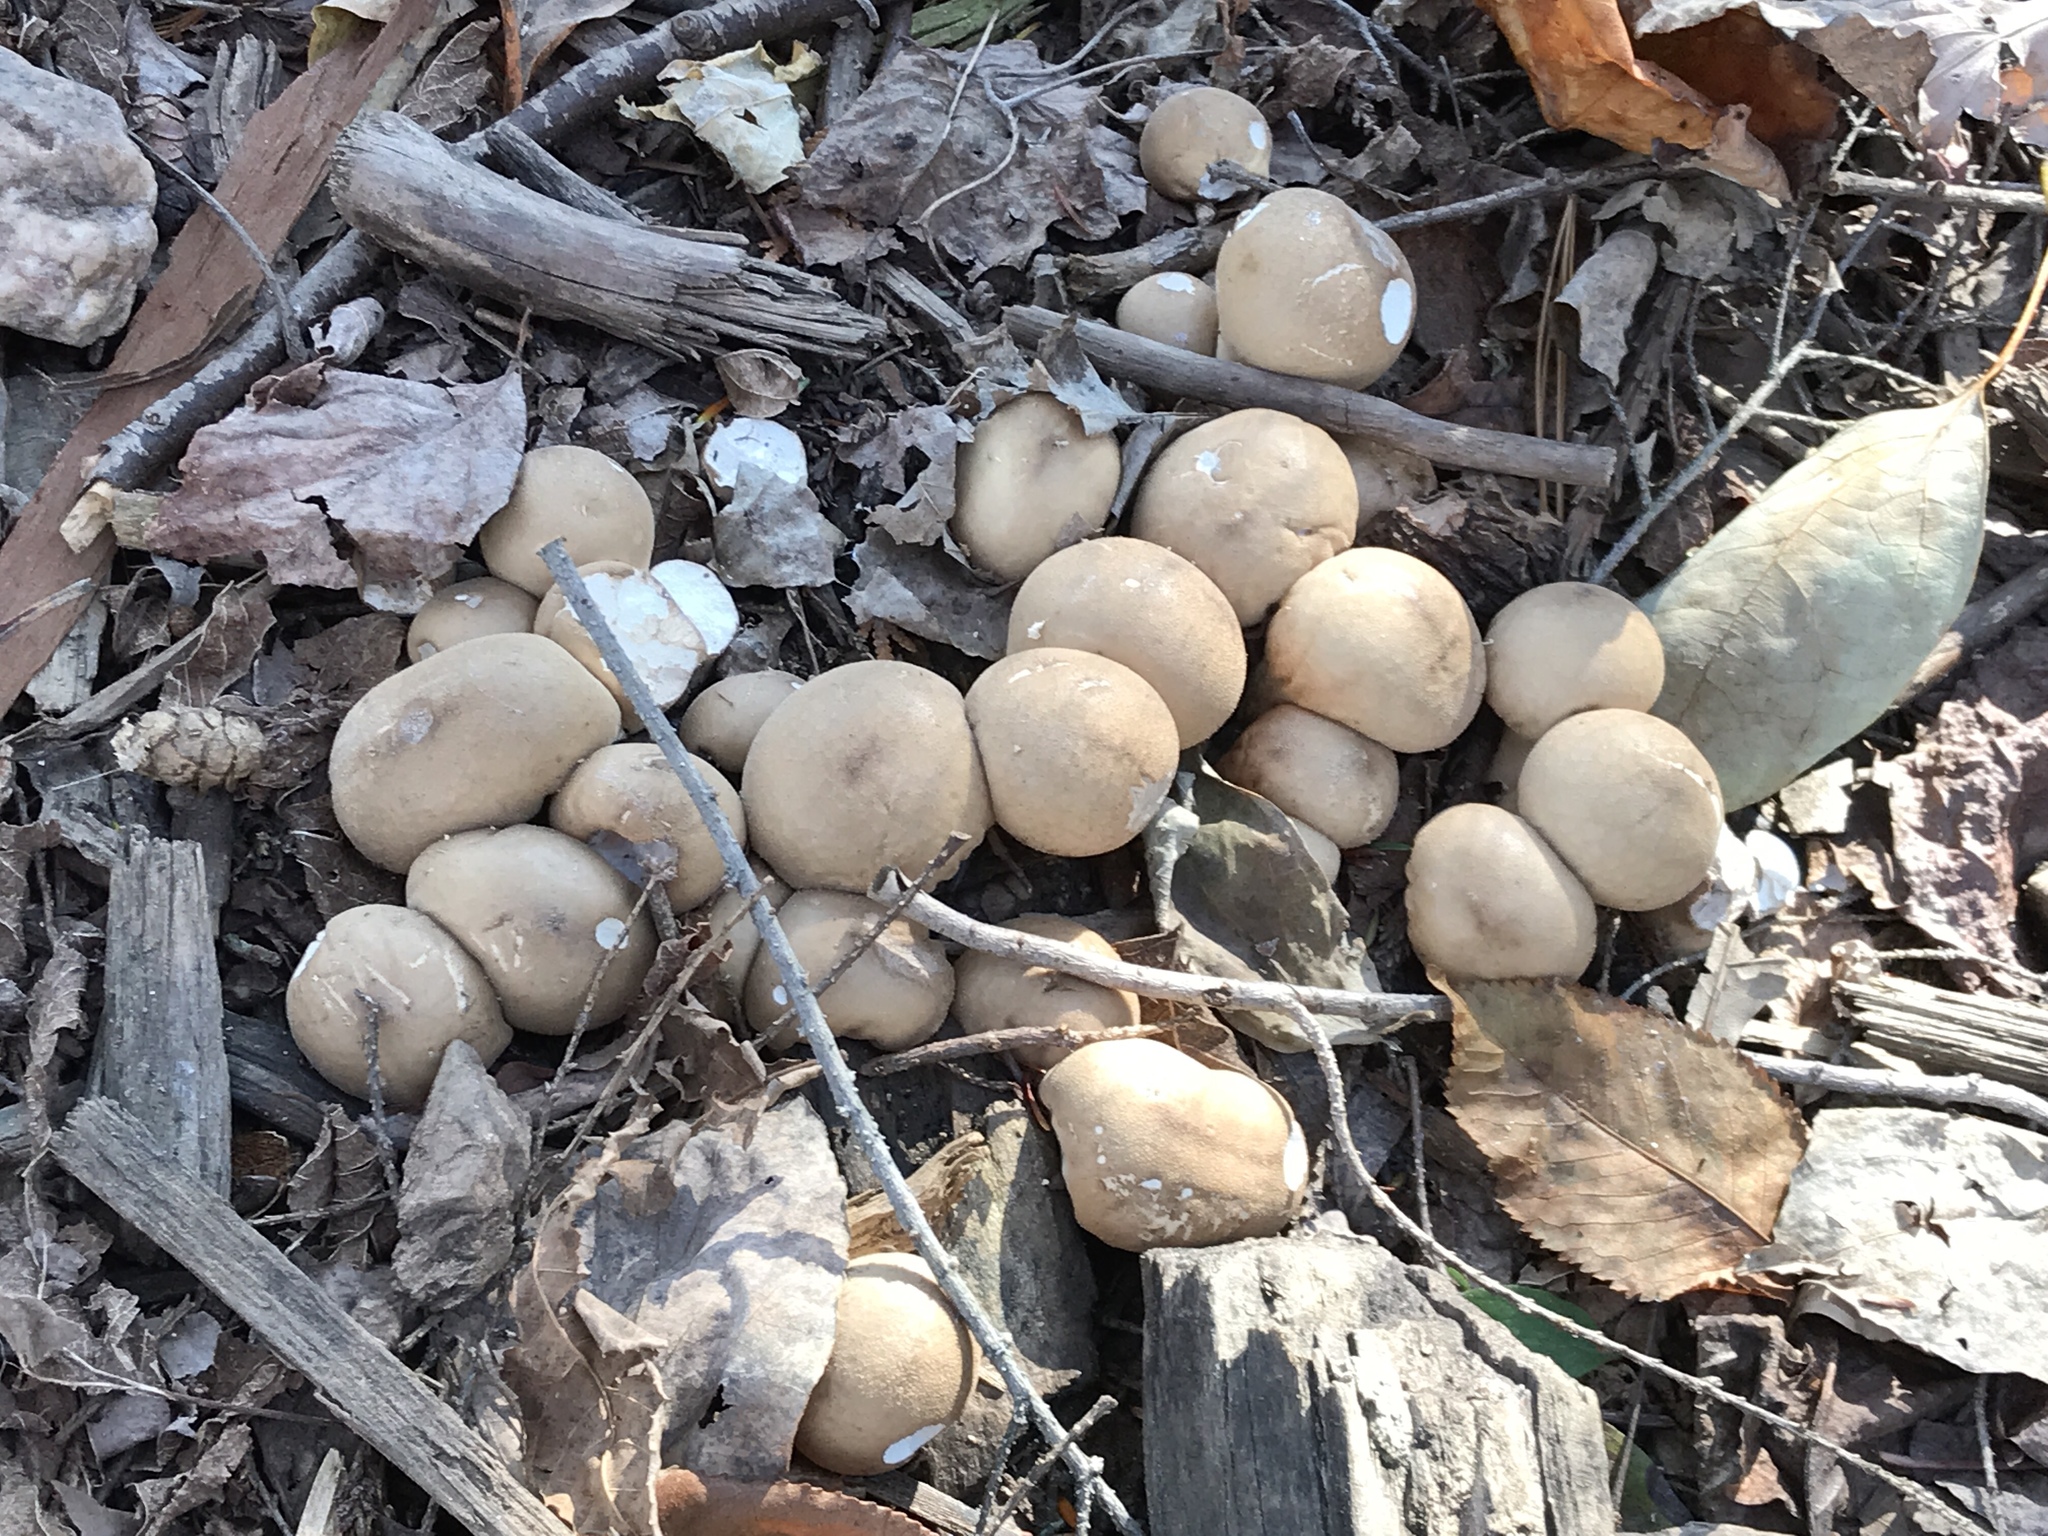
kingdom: Fungi
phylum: Basidiomycota
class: Agaricomycetes
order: Agaricales
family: Lycoperdaceae
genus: Apioperdon
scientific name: Apioperdon pyriforme
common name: Pear-shaped puffball
